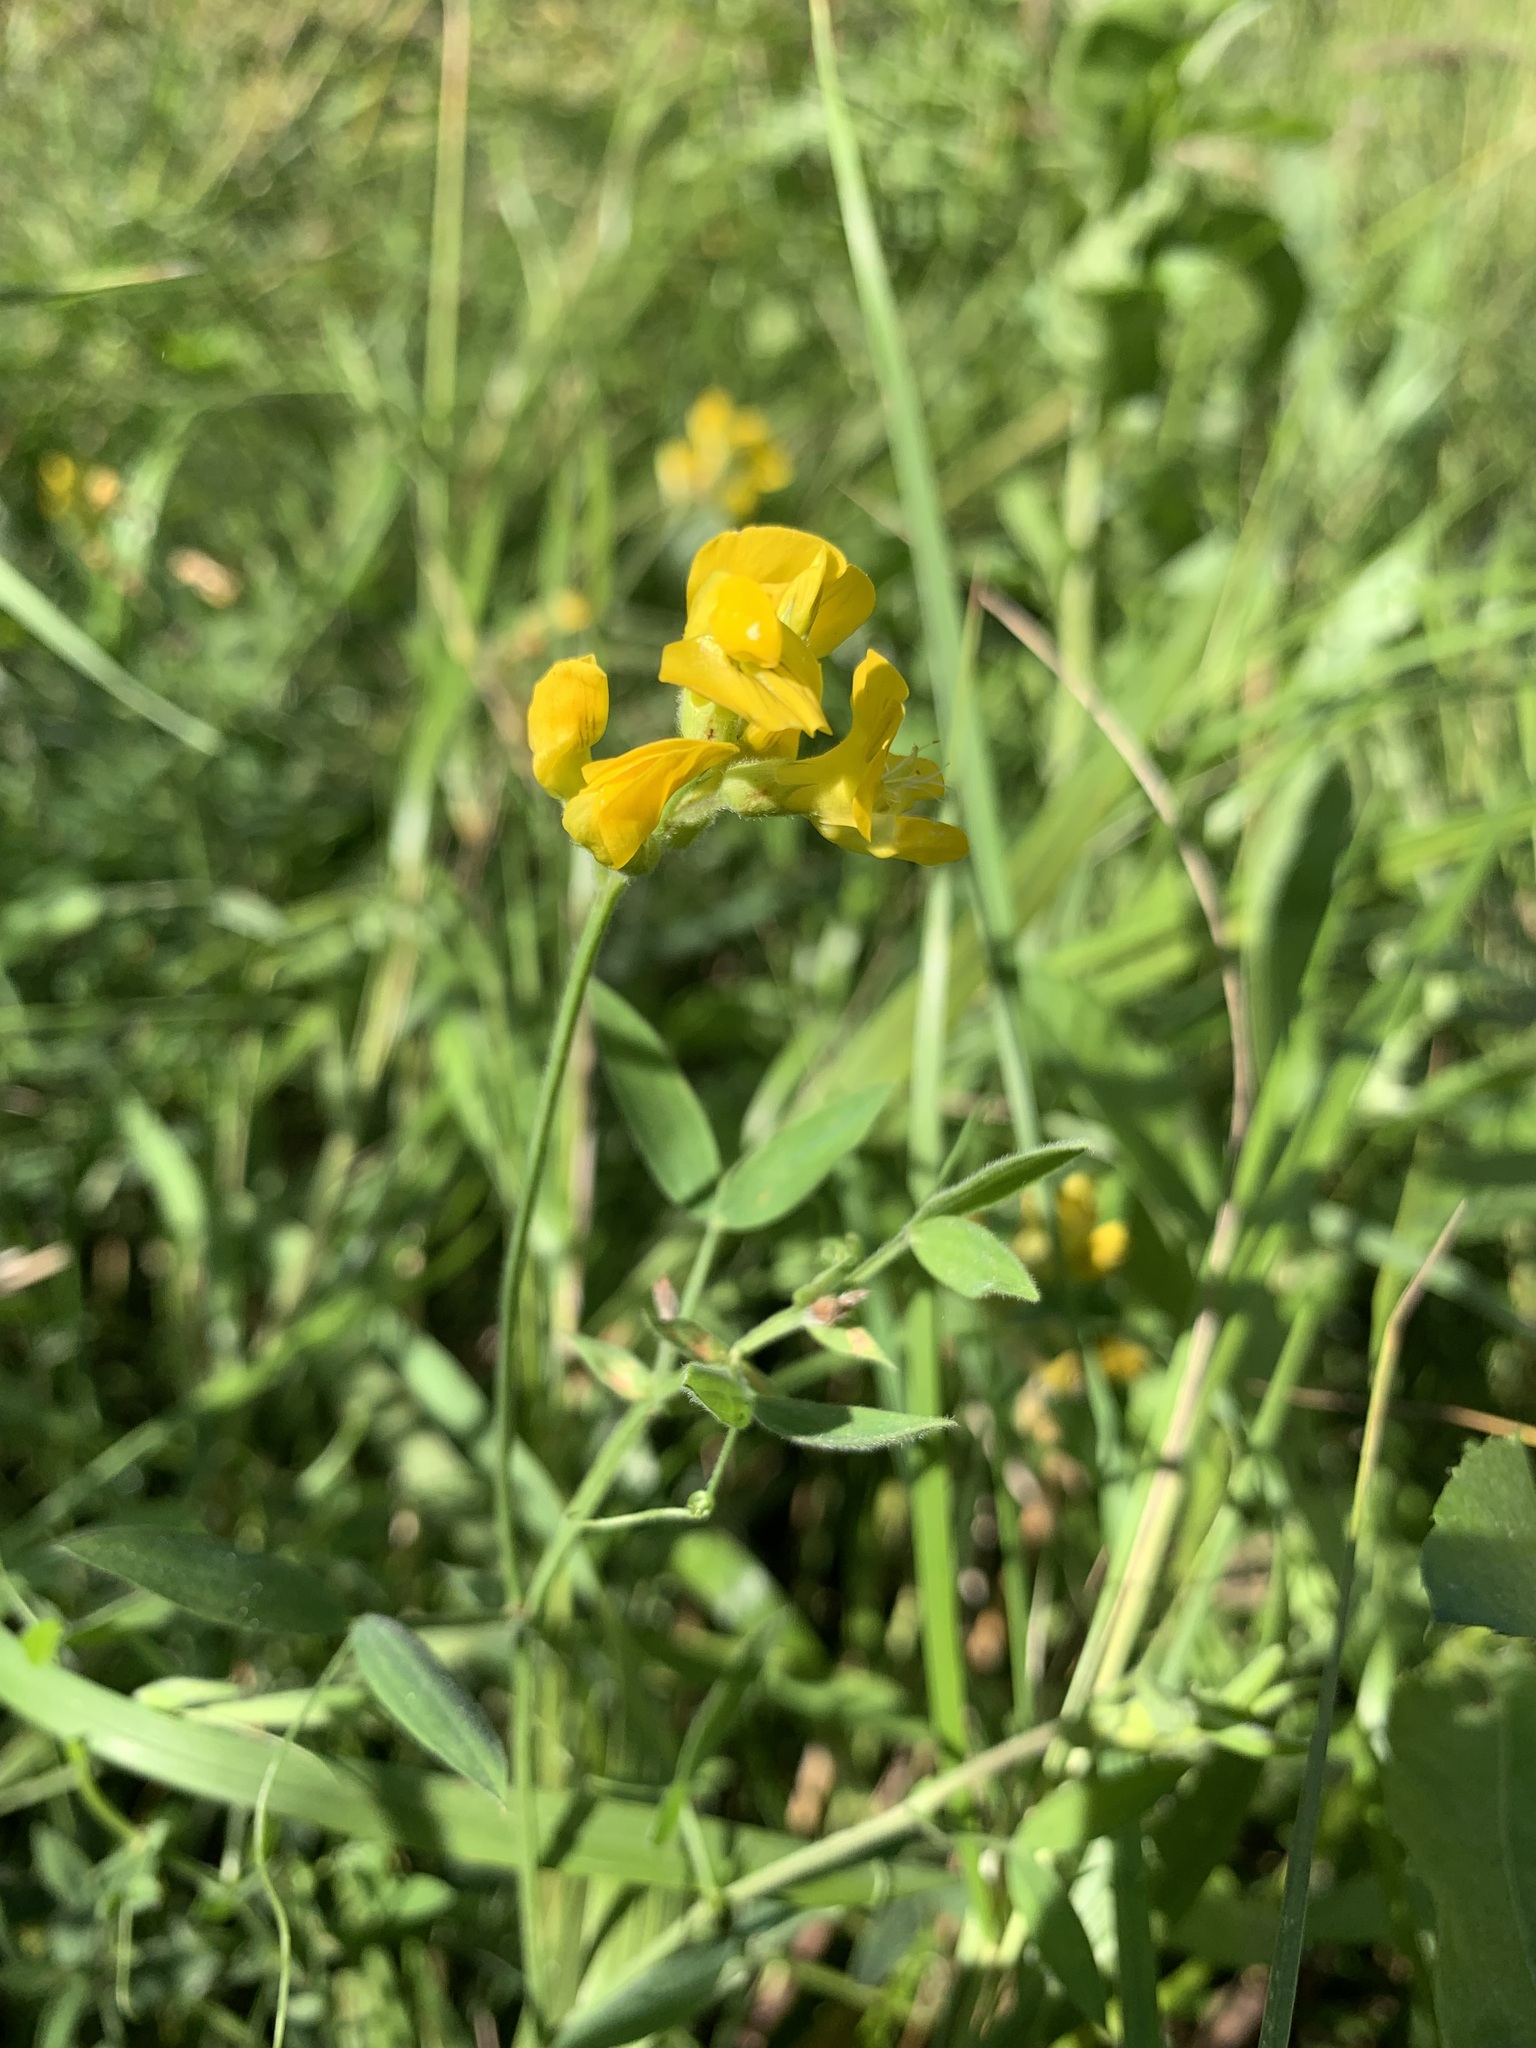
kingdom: Plantae
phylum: Tracheophyta
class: Magnoliopsida
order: Fabales
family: Fabaceae
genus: Lathyrus
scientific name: Lathyrus pratensis
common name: Meadow vetchling
